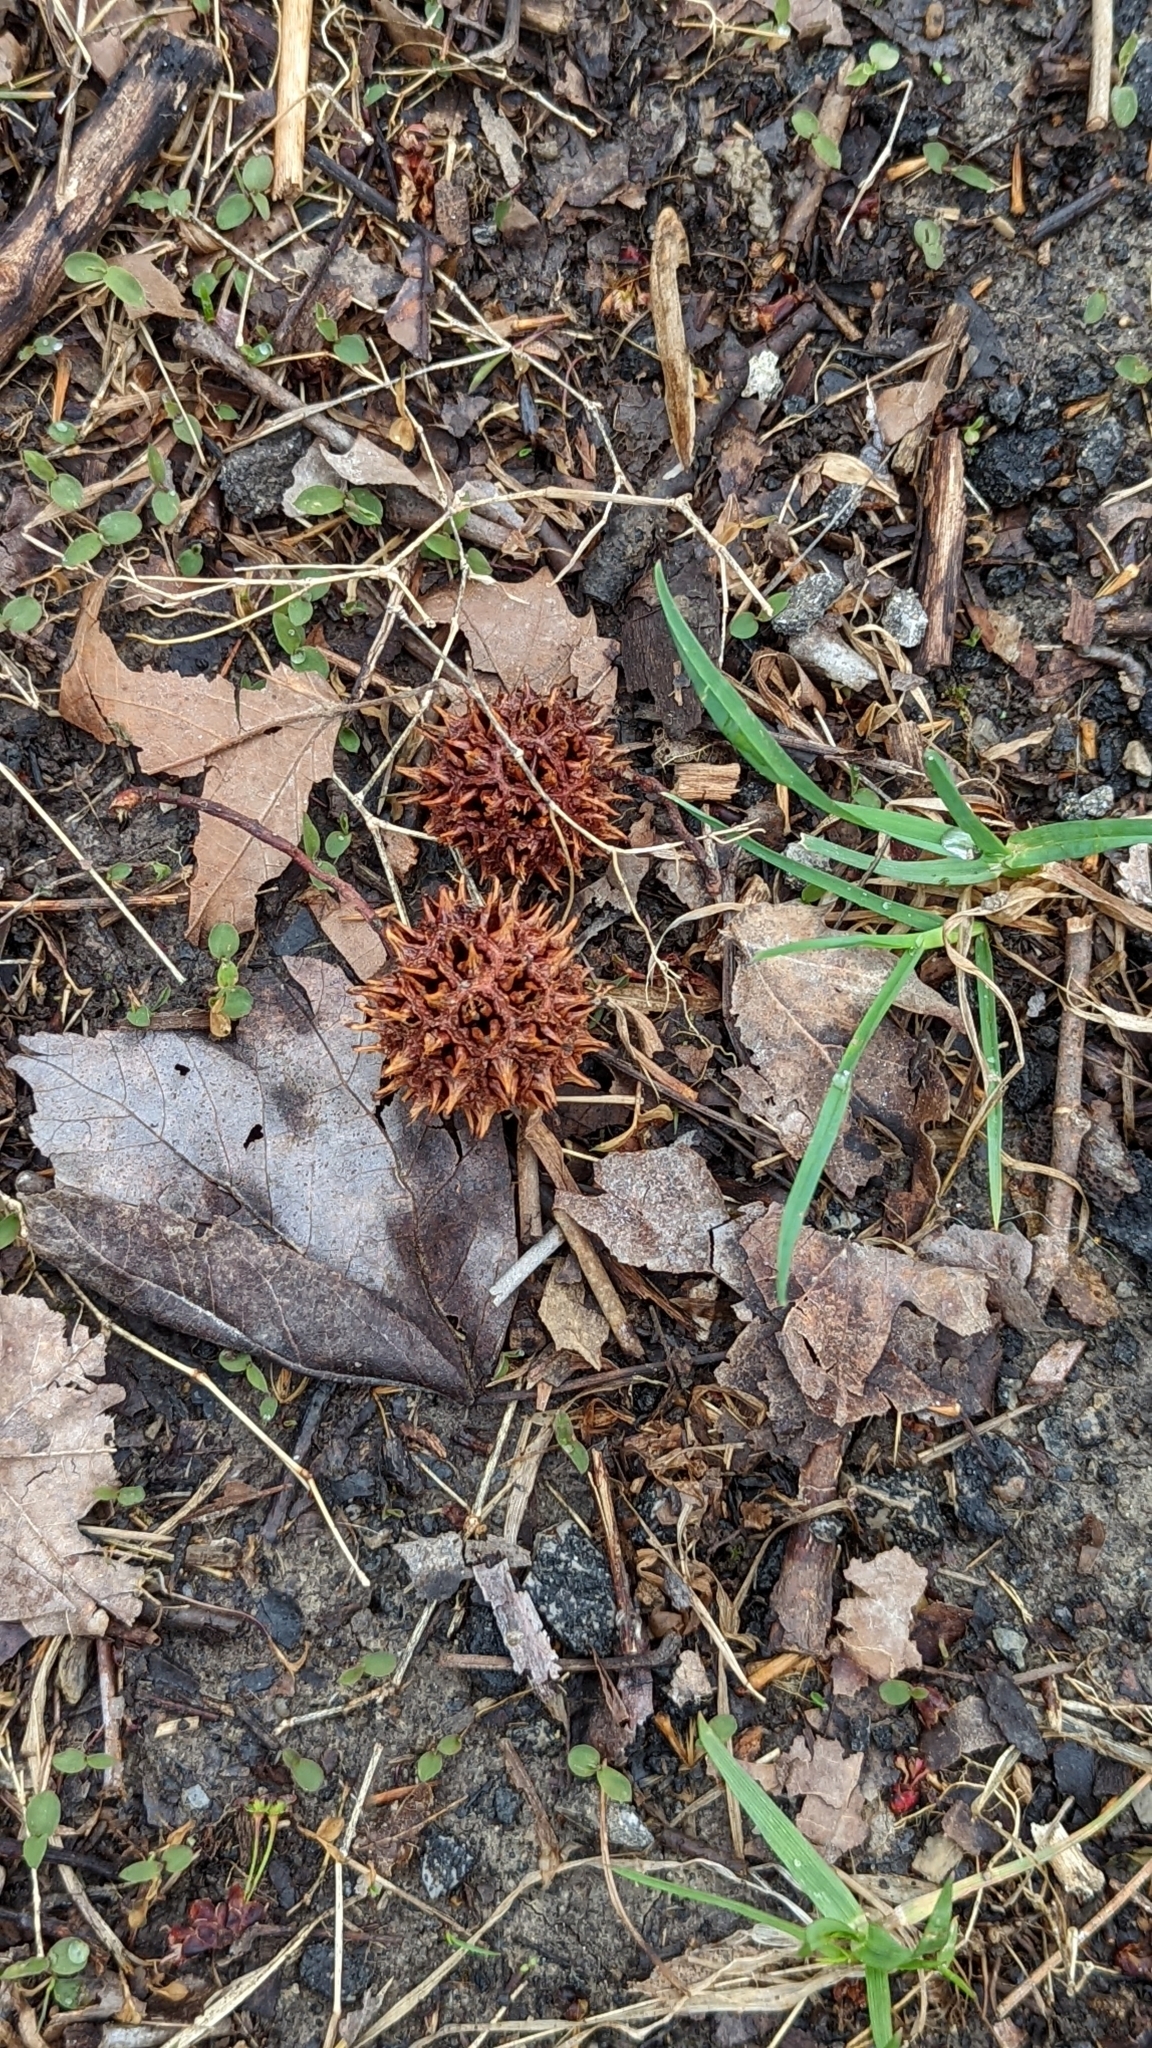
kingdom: Plantae
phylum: Tracheophyta
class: Magnoliopsida
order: Saxifragales
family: Altingiaceae
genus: Liquidambar
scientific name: Liquidambar styraciflua
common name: Sweet gum
